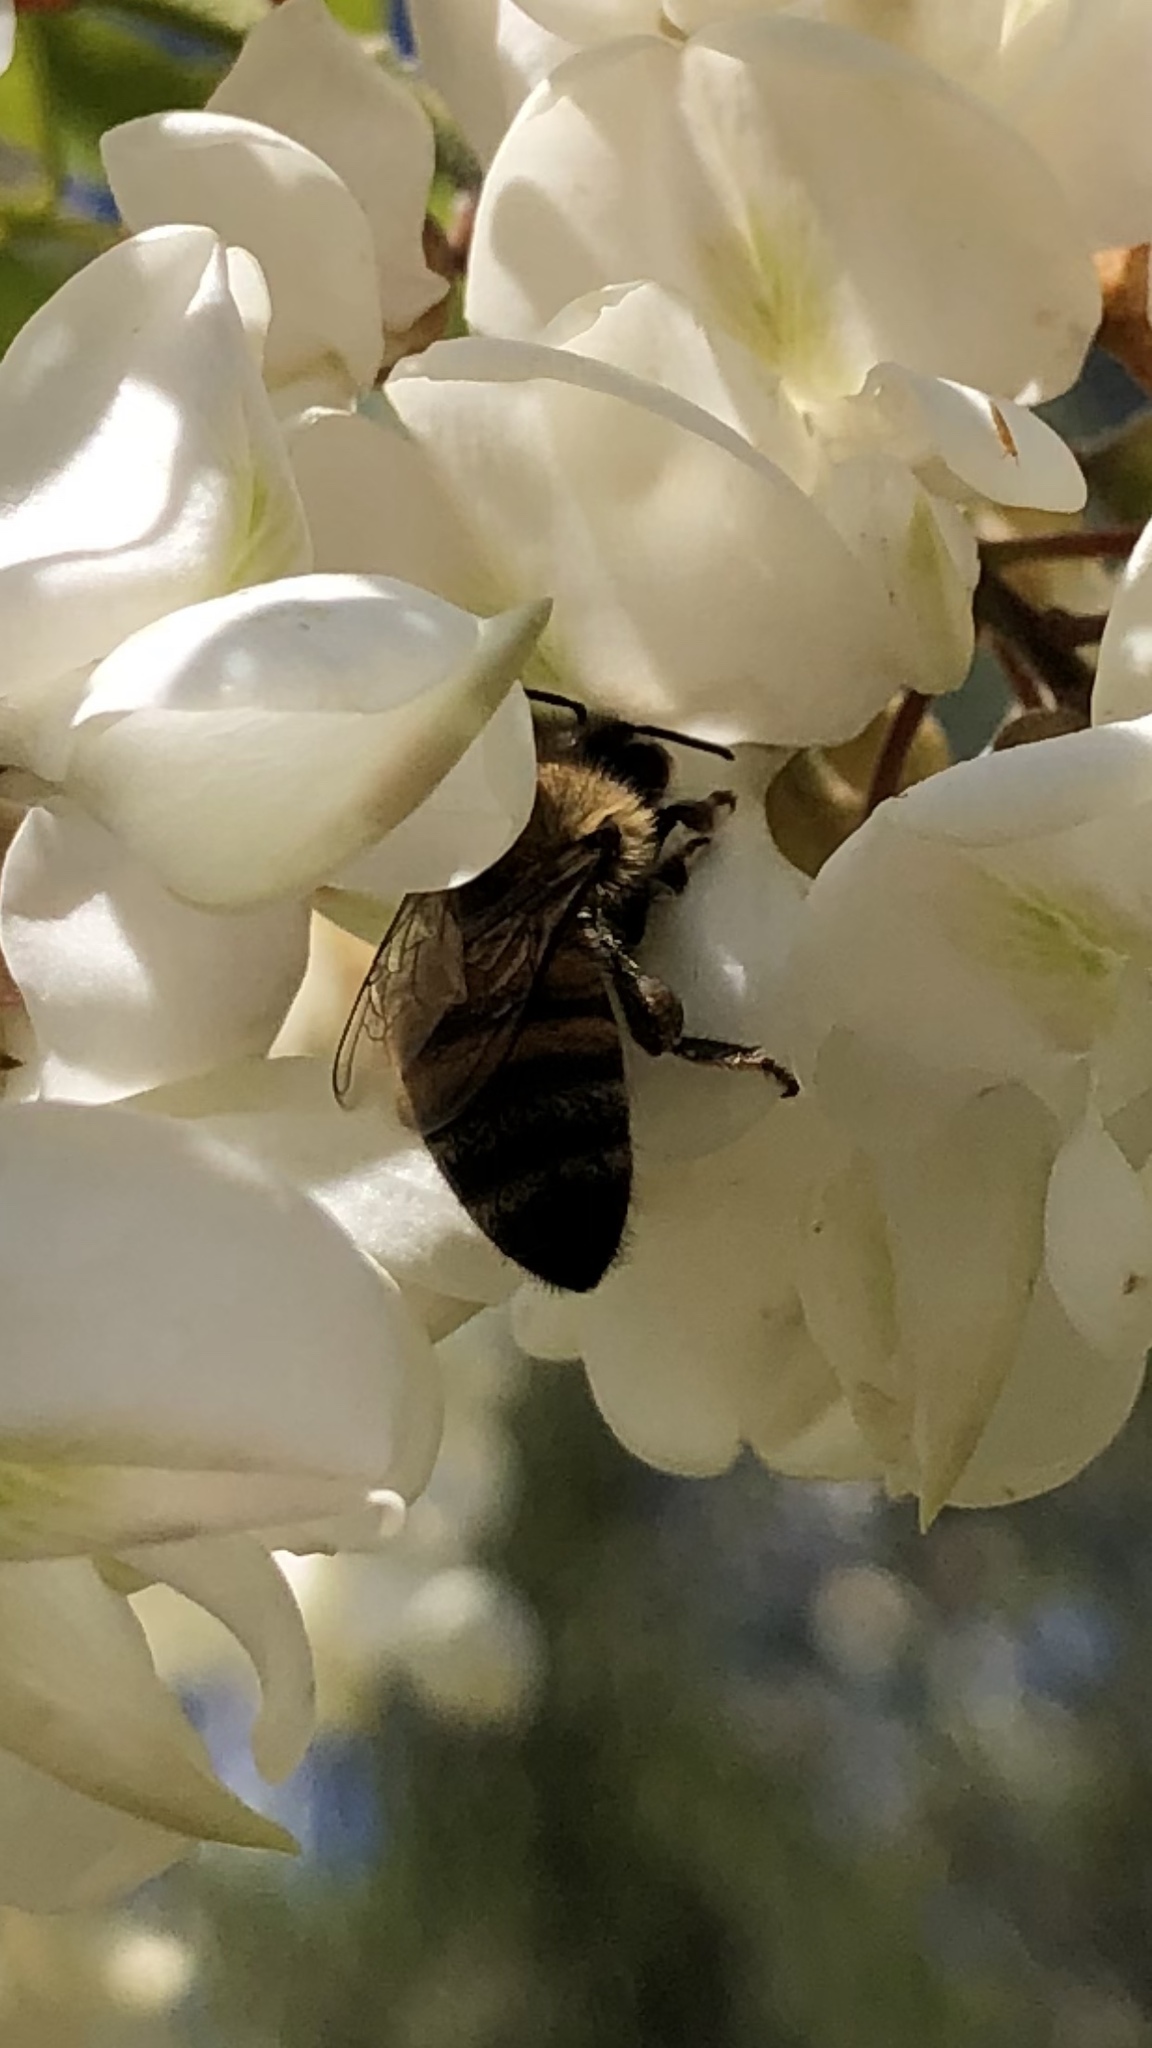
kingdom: Animalia
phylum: Arthropoda
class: Insecta
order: Hymenoptera
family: Apidae
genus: Apis
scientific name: Apis mellifera
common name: Honey bee
